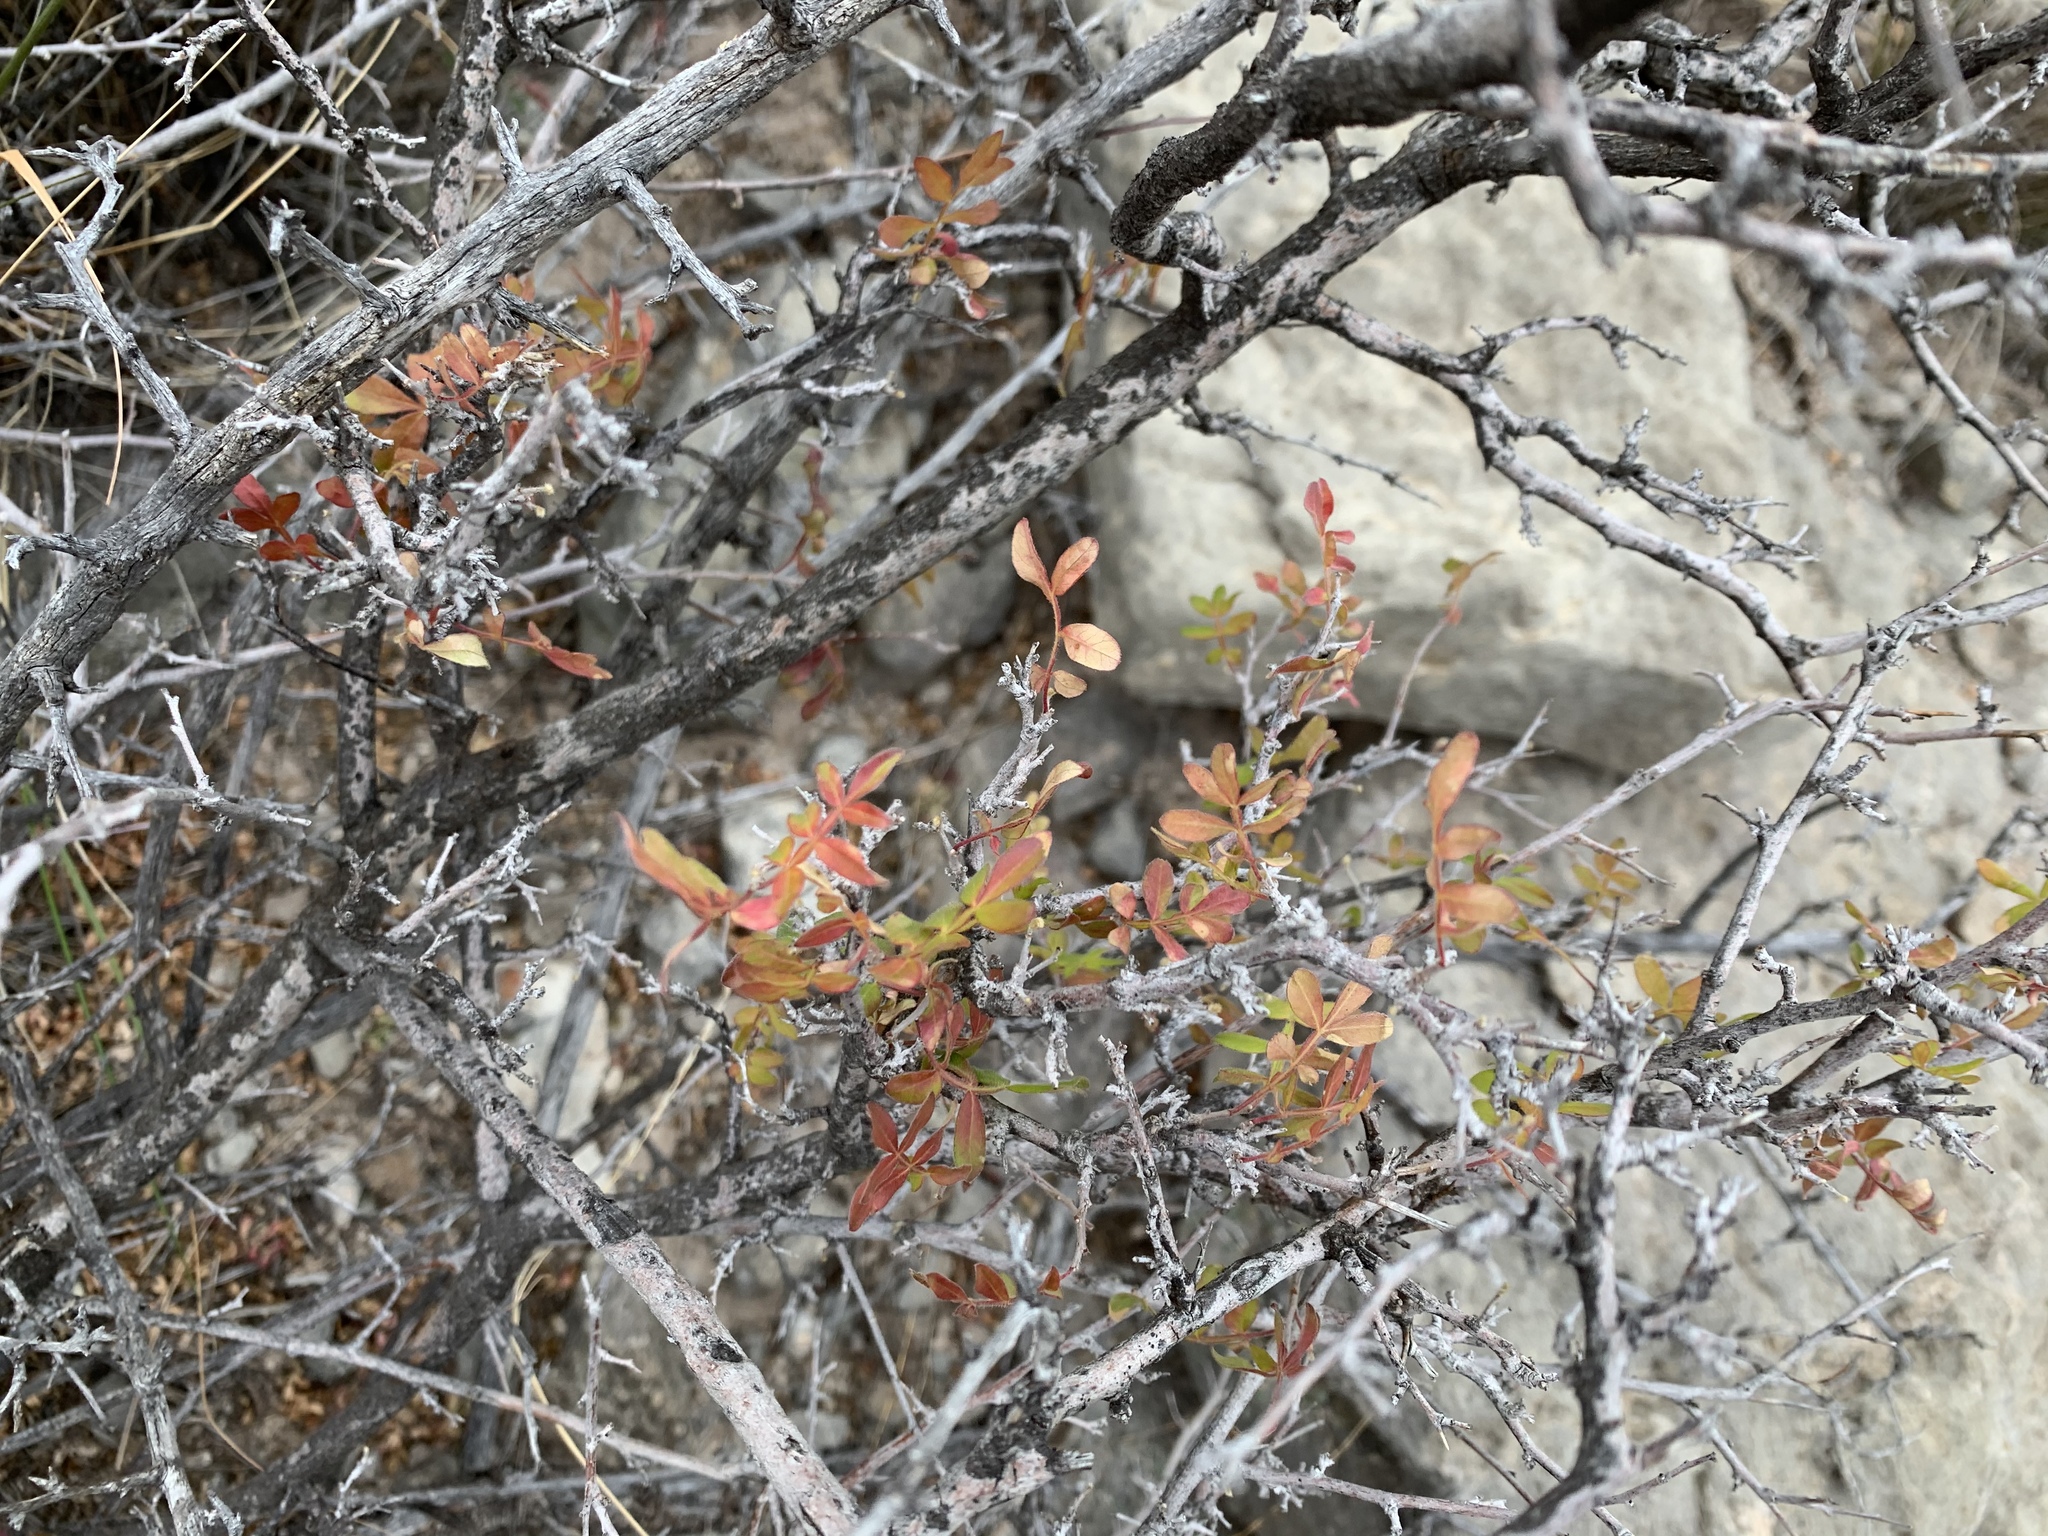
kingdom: Plantae
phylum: Tracheophyta
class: Magnoliopsida
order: Sapindales
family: Anacardiaceae
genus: Rhus
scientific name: Rhus microphylla
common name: Desert sumac
